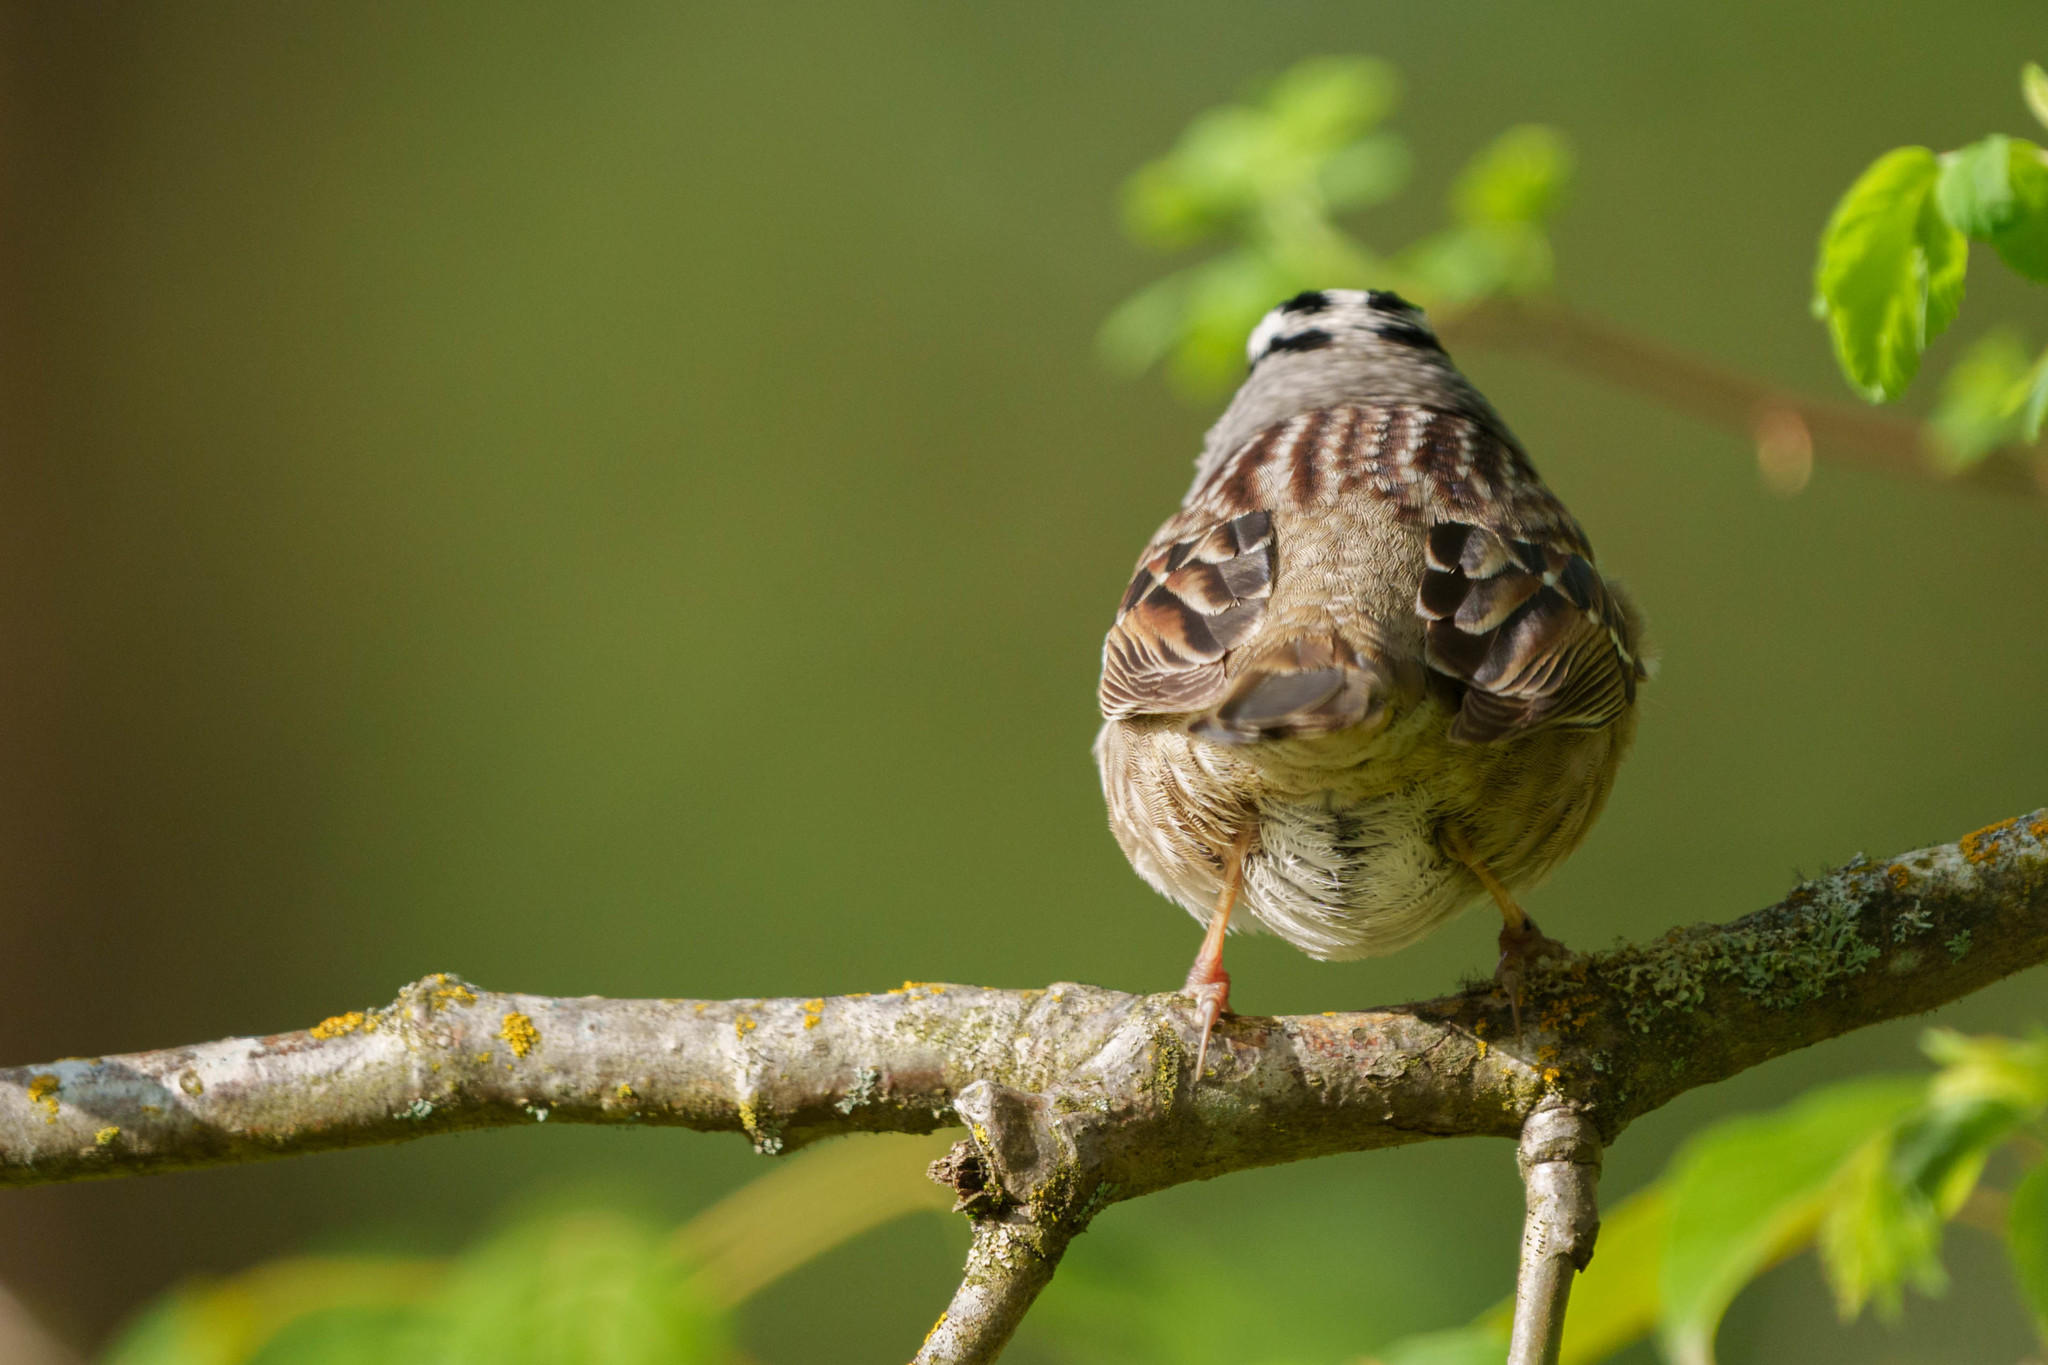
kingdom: Animalia
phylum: Chordata
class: Aves
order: Passeriformes
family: Passerellidae
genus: Zonotrichia
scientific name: Zonotrichia leucophrys
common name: White-crowned sparrow
